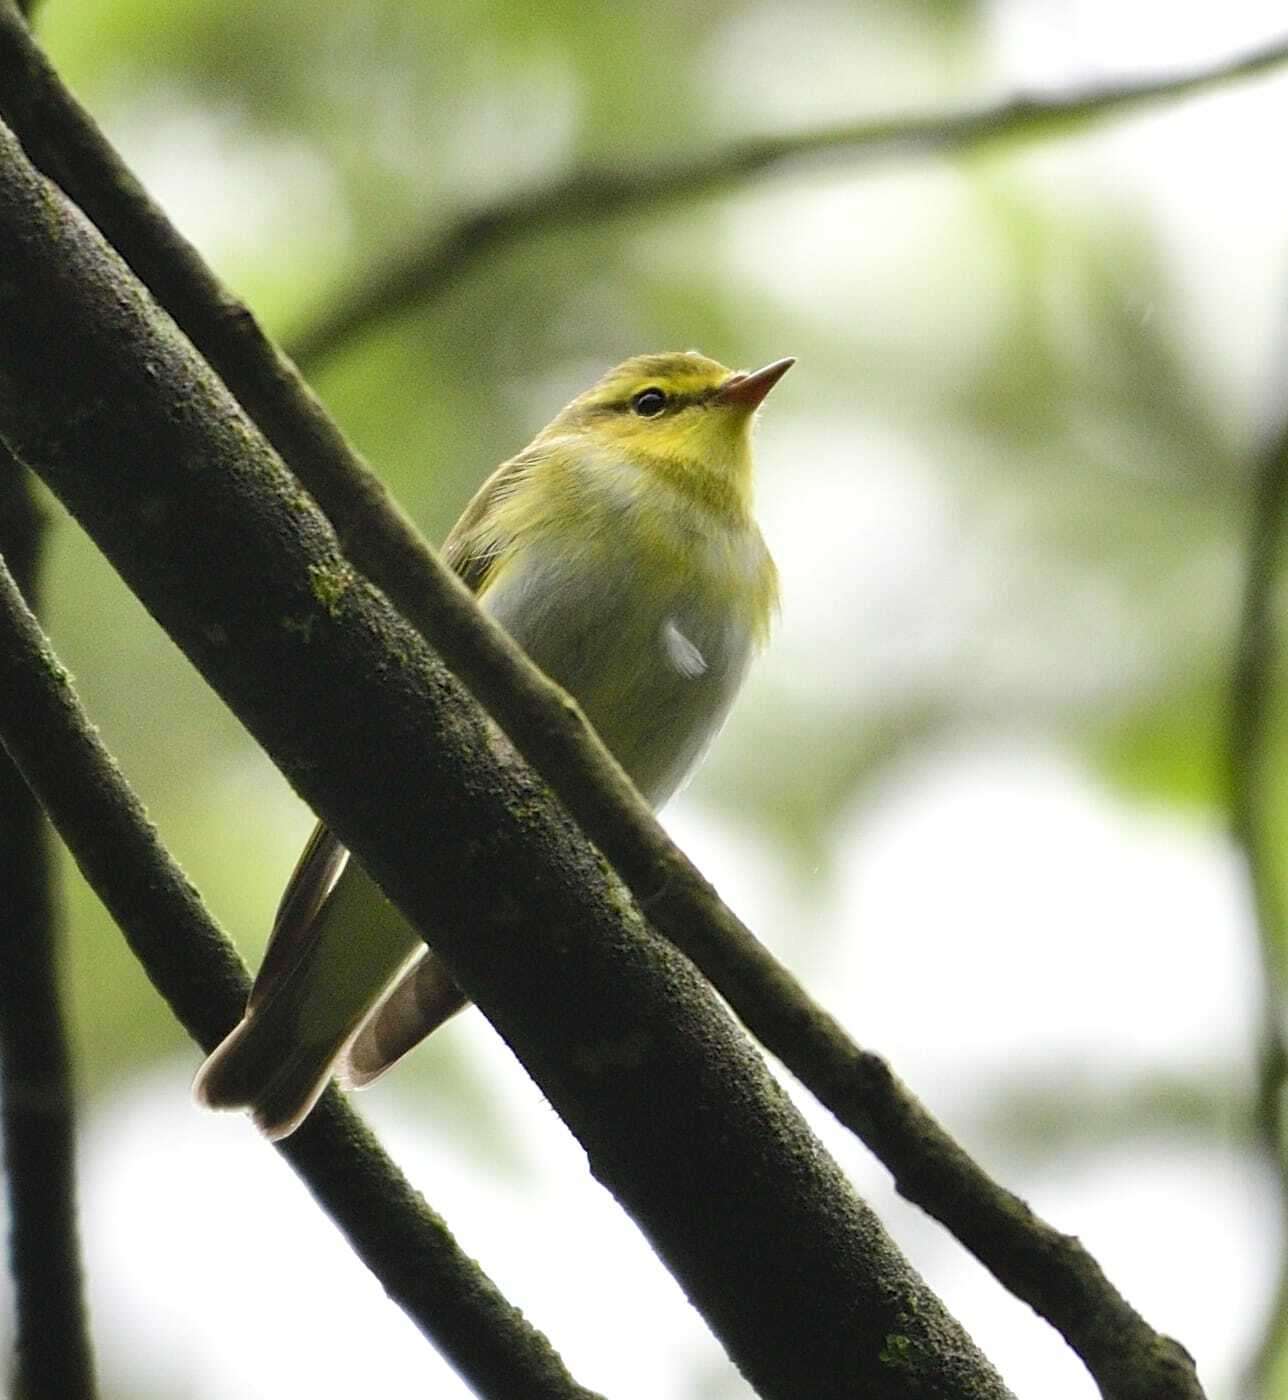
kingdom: Animalia
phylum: Chordata
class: Aves
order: Passeriformes
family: Phylloscopidae
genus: Phylloscopus
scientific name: Phylloscopus sibillatrix
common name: Wood warbler
